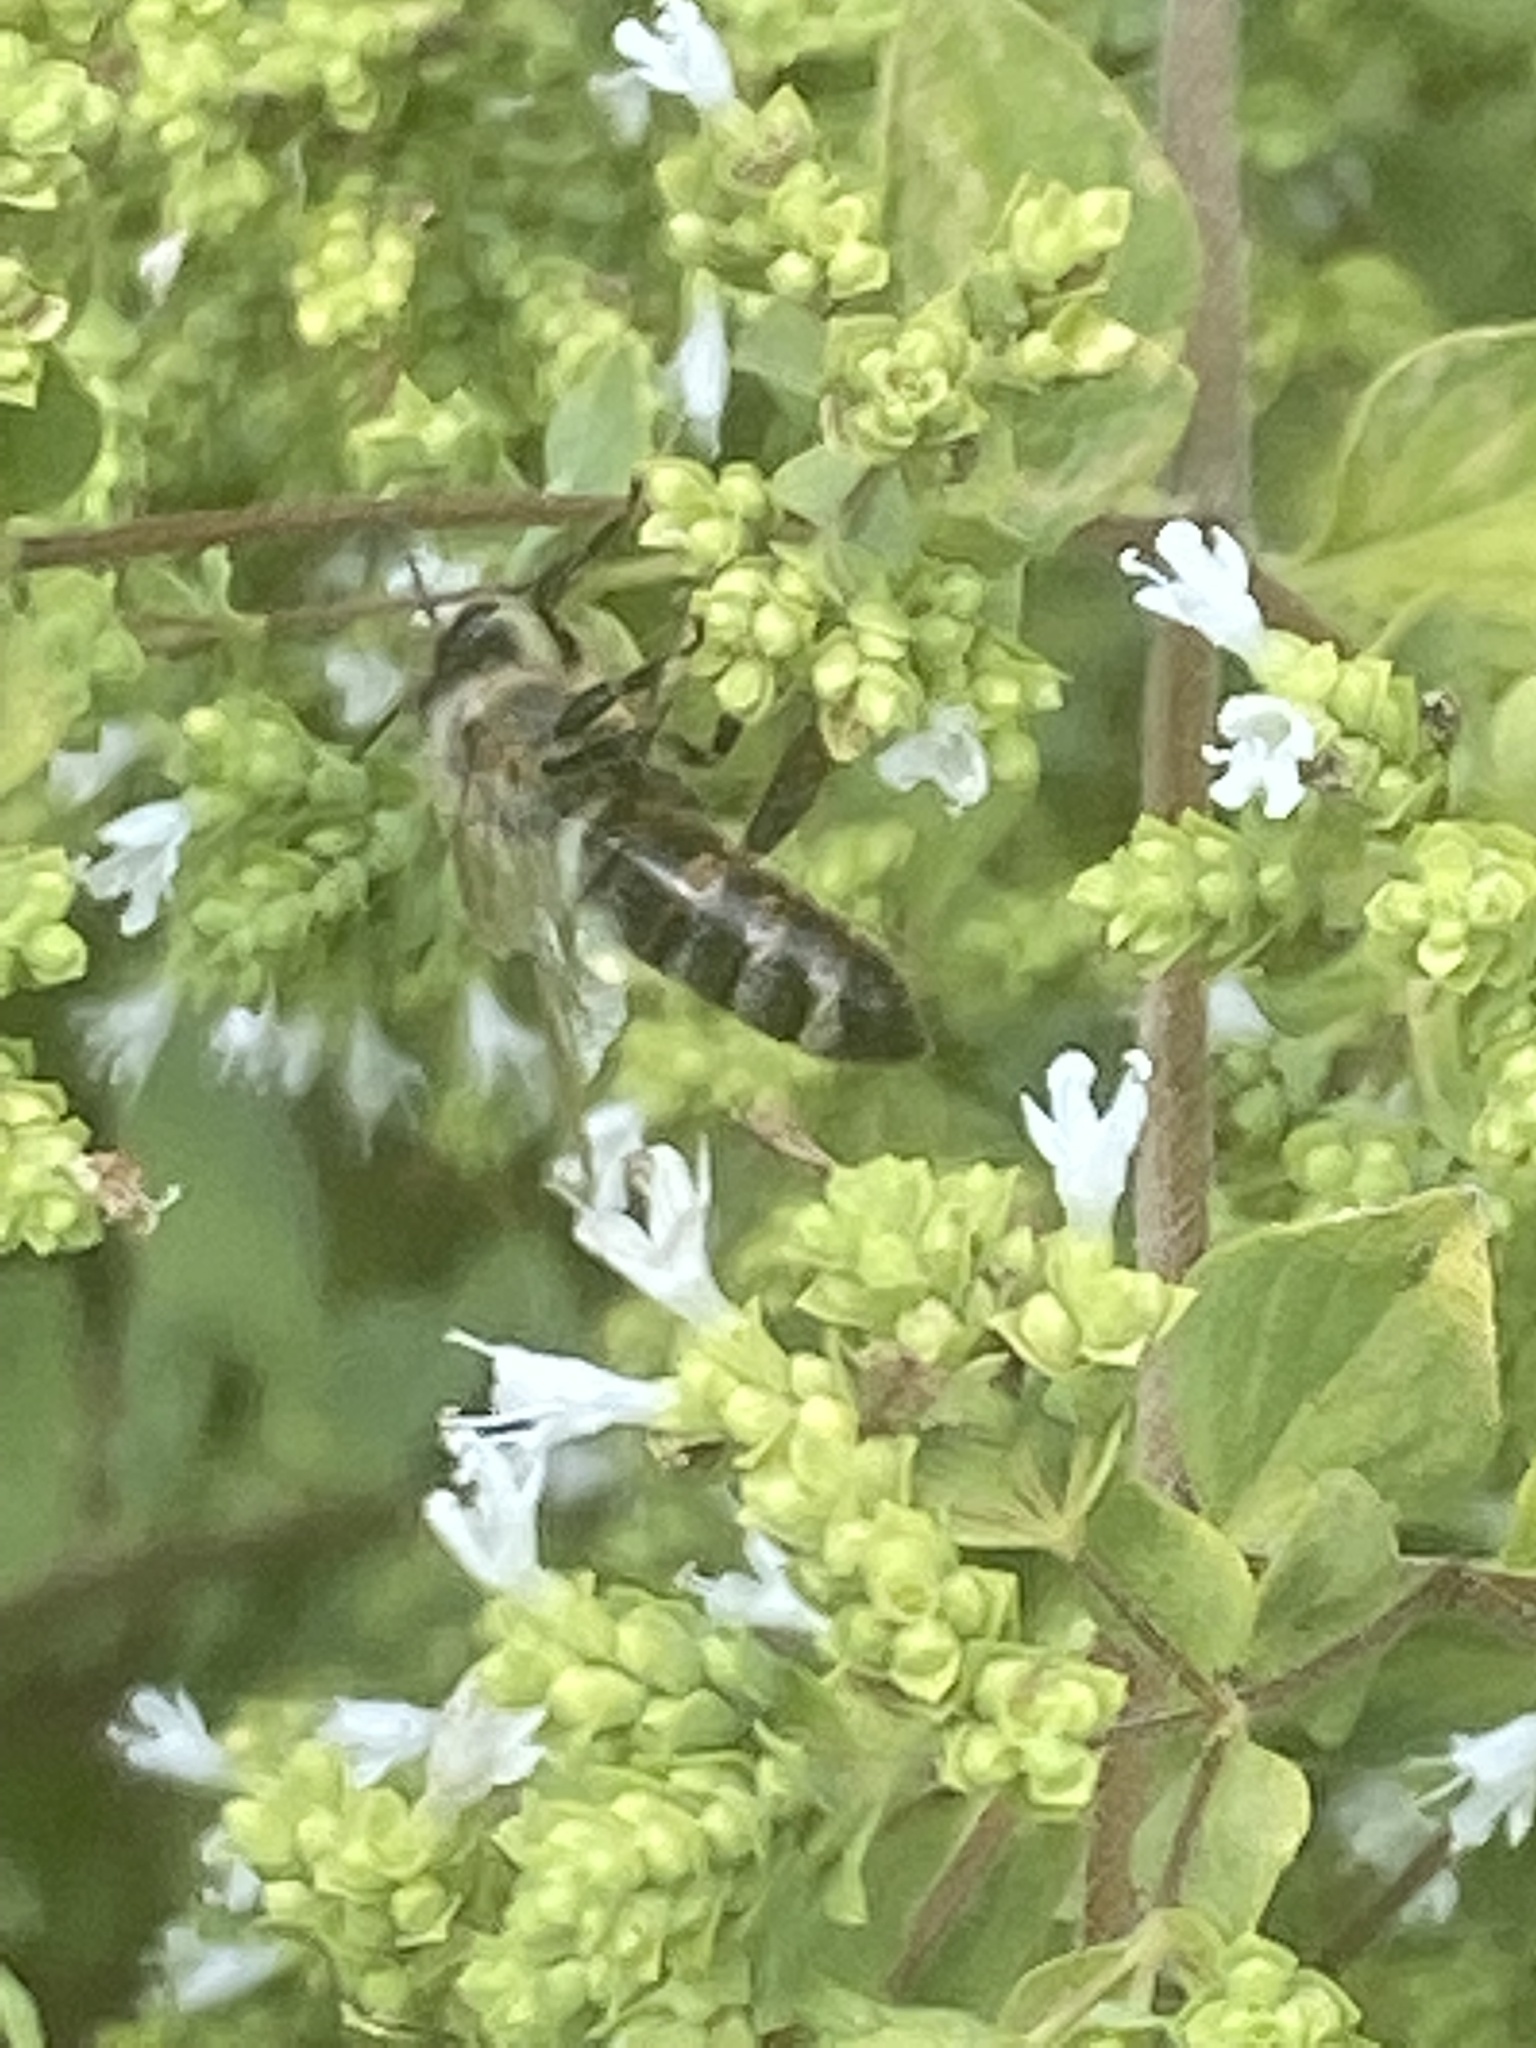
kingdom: Animalia
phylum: Arthropoda
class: Insecta
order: Hymenoptera
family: Apidae
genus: Apis
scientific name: Apis mellifera
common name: Honey bee
